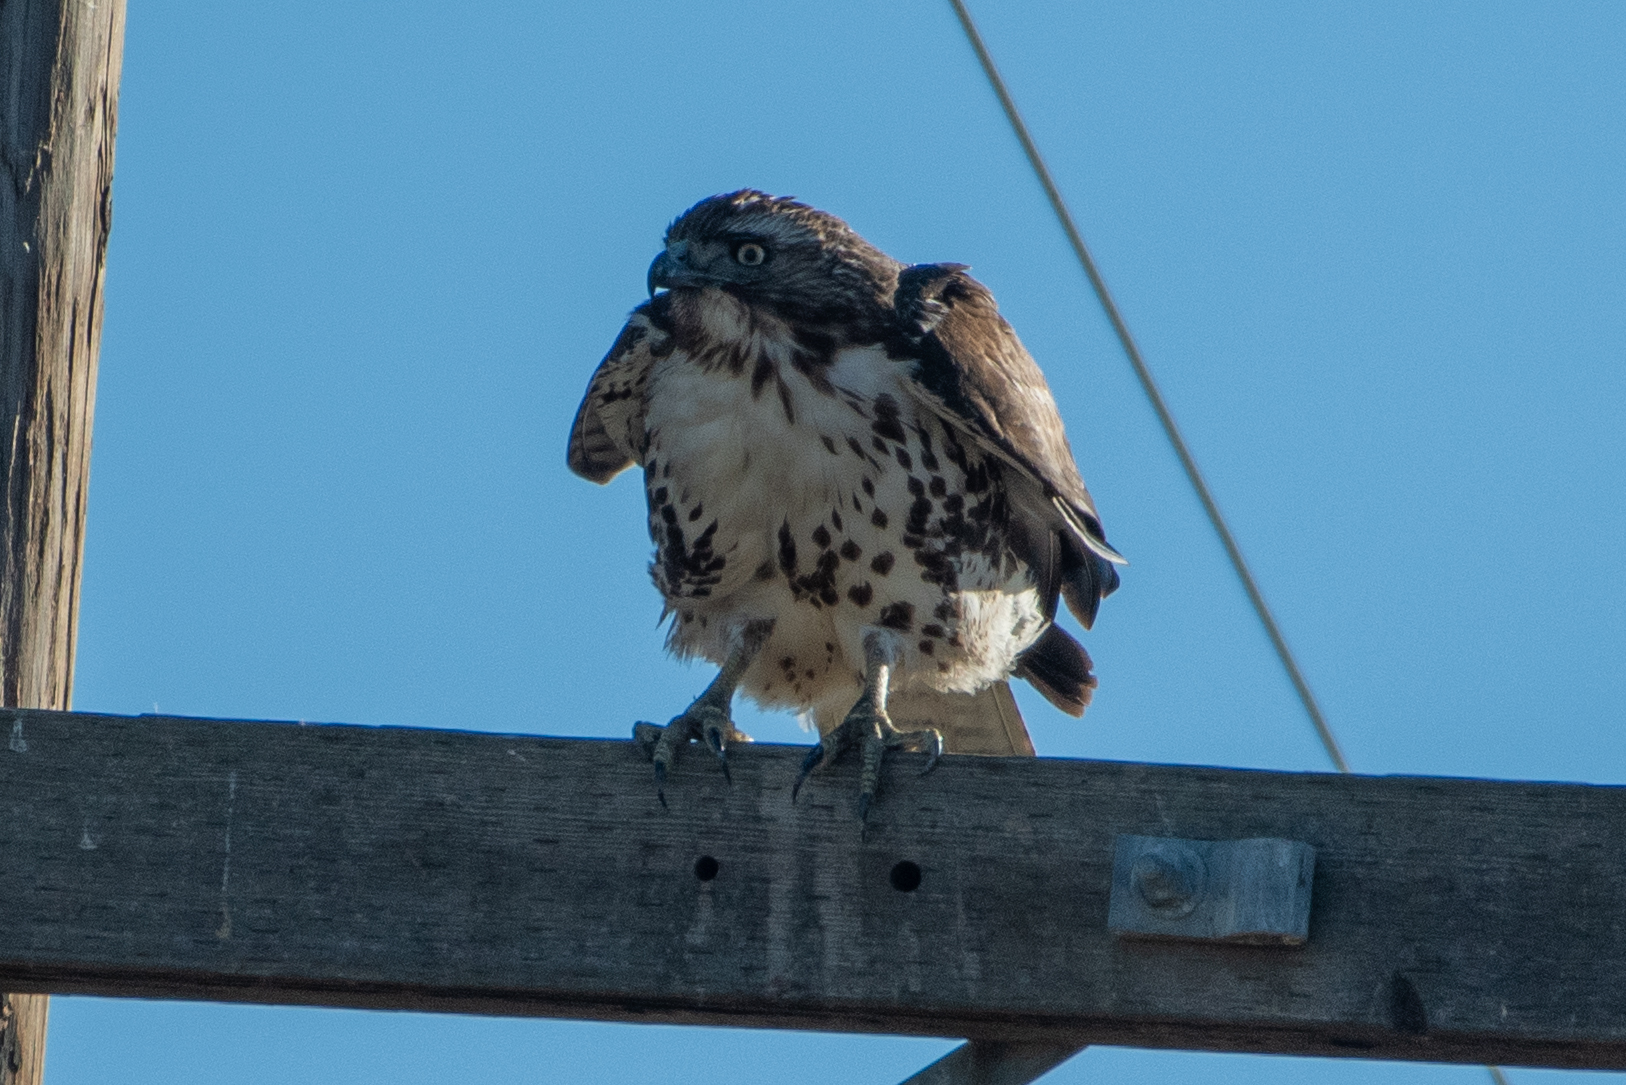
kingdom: Animalia
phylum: Chordata
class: Aves
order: Accipitriformes
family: Accipitridae
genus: Buteo
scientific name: Buteo jamaicensis
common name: Red-tailed hawk
